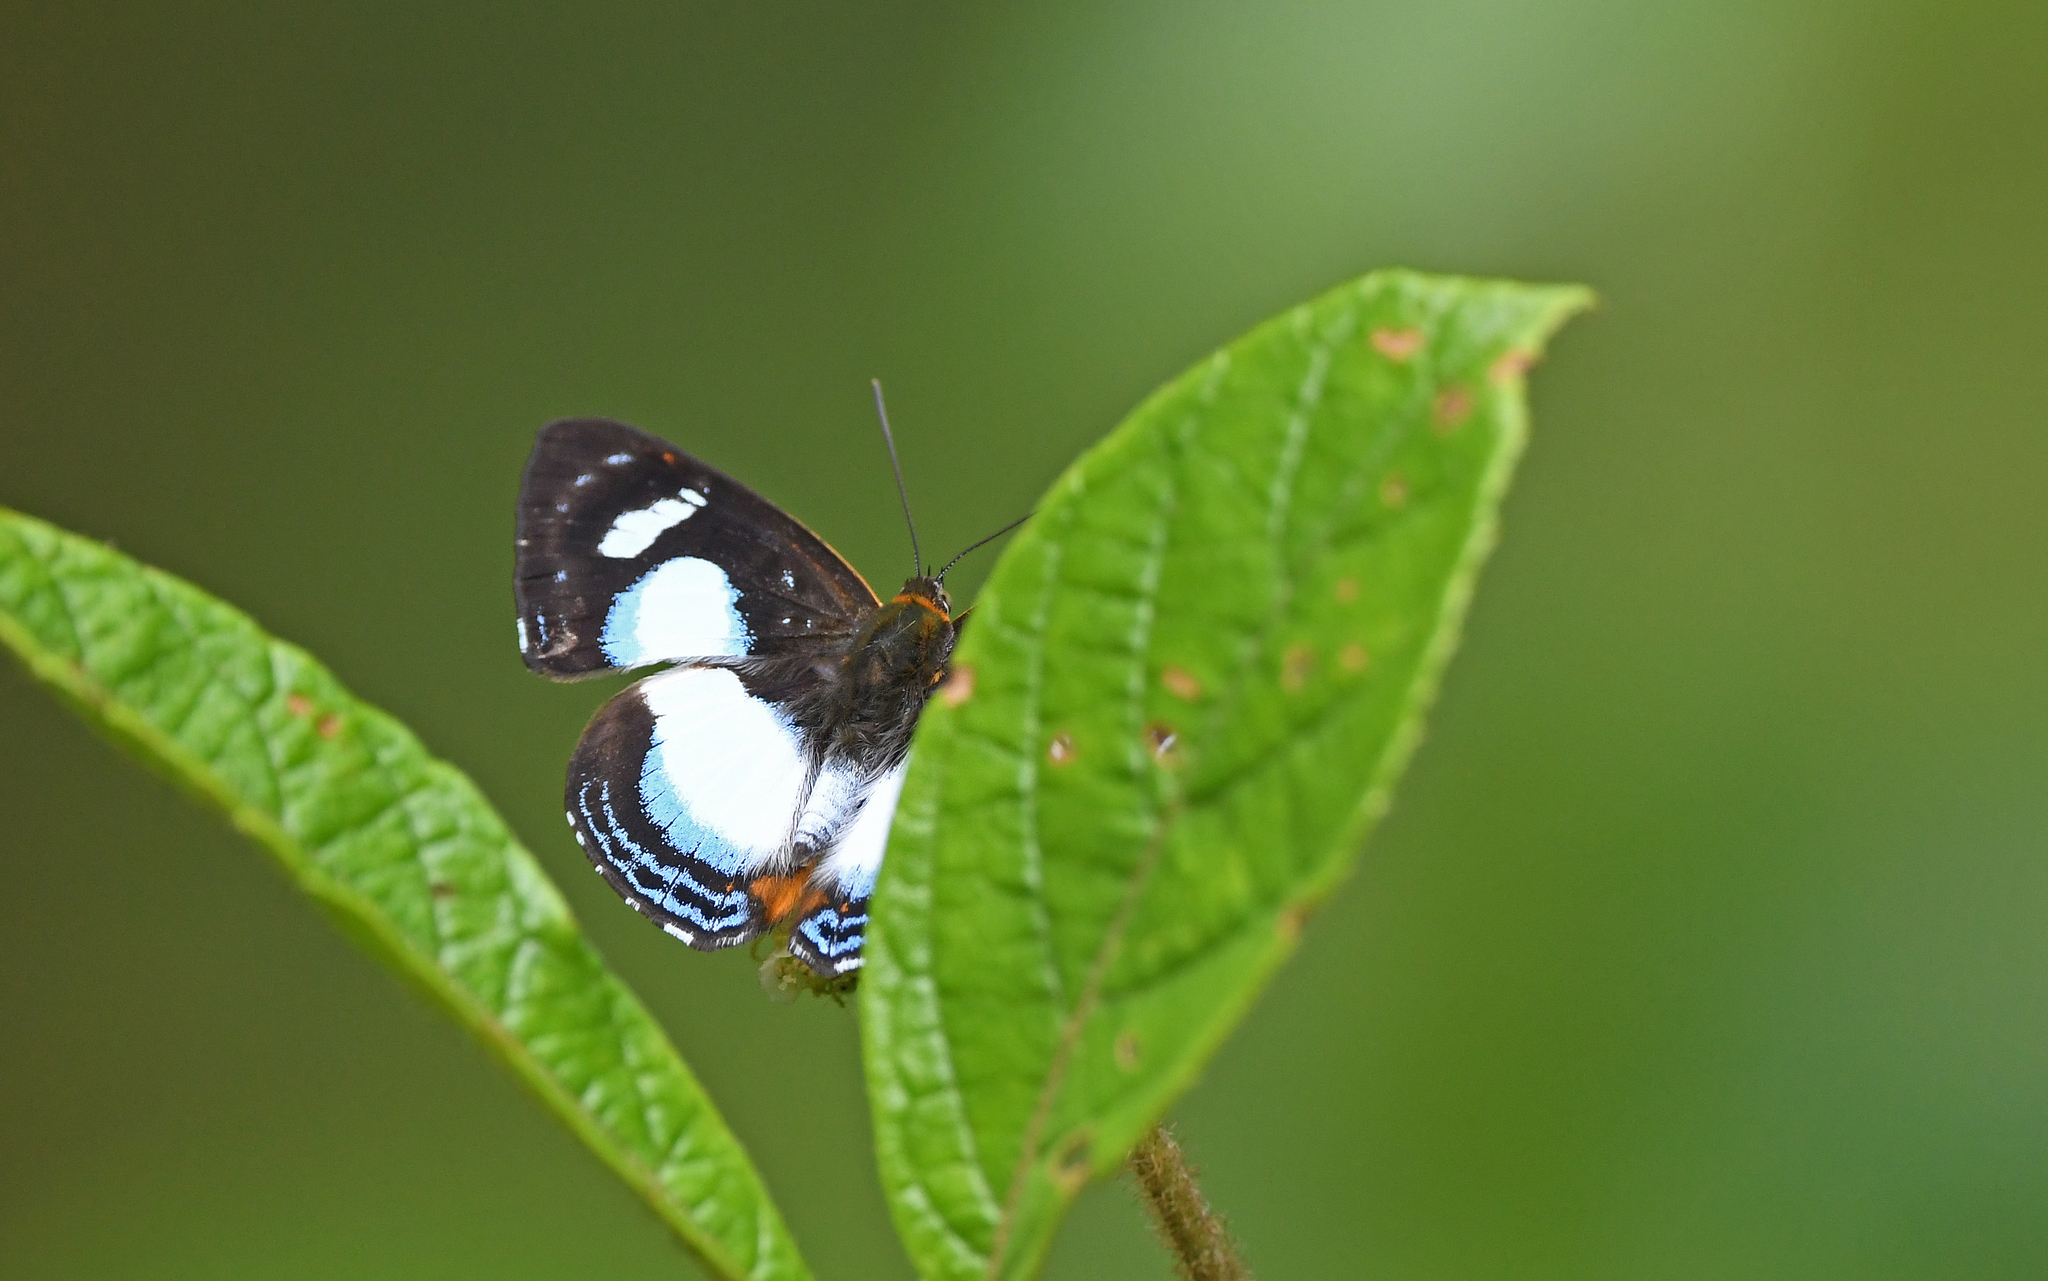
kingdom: Animalia
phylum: Arthropoda
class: Insecta
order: Lepidoptera
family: Riodinidae
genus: Thisbe
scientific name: Thisbe irenea
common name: Irenia metalmark
